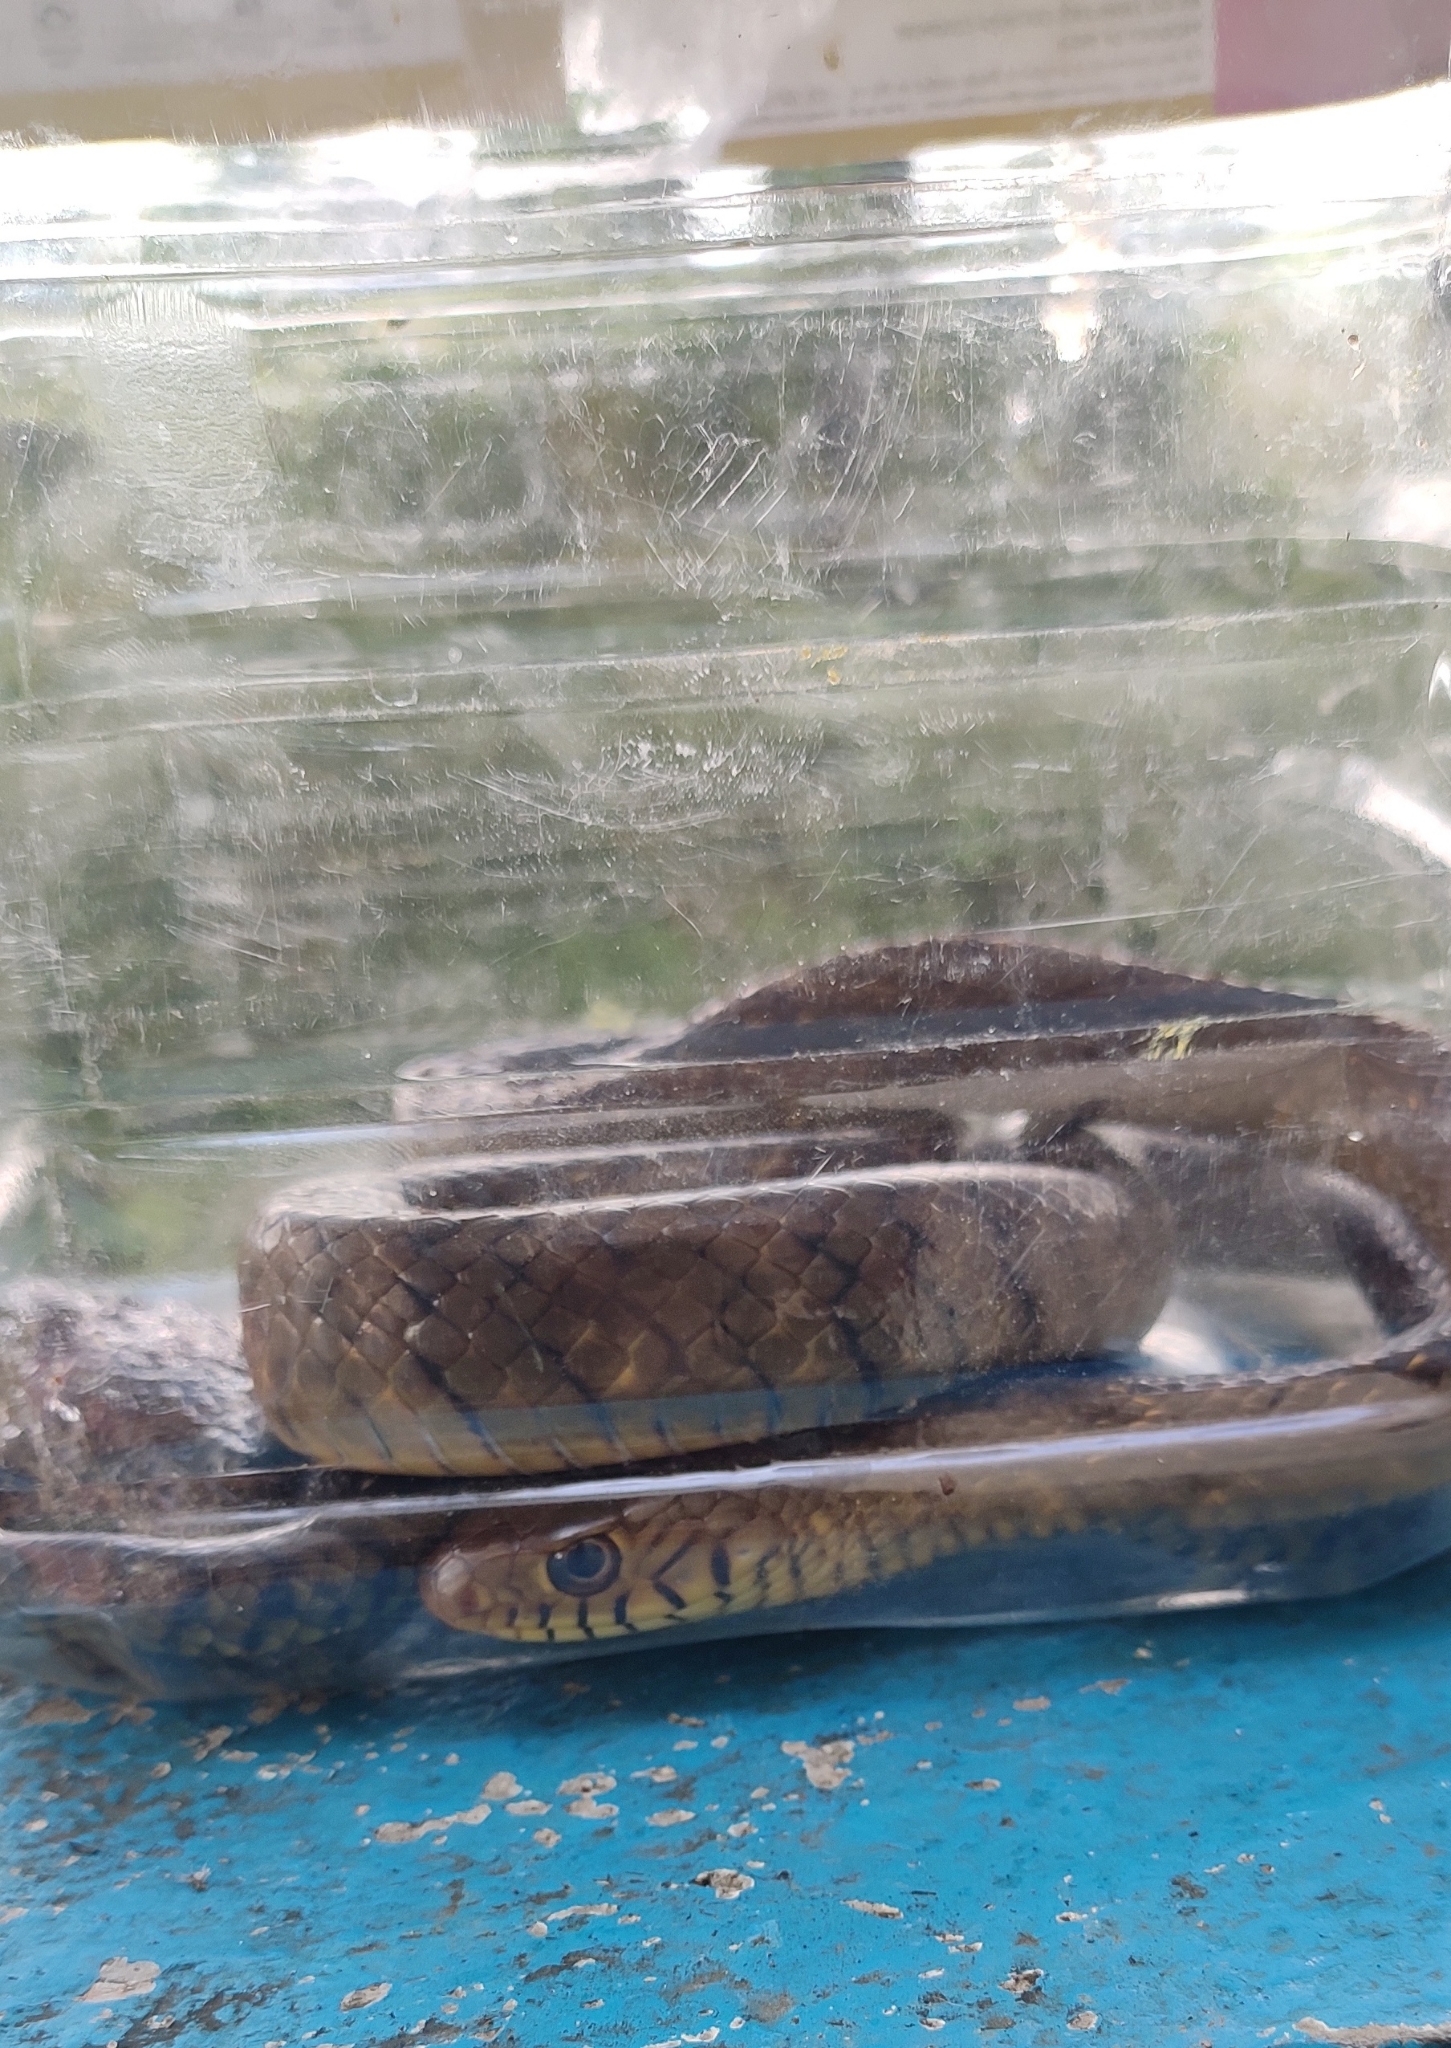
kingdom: Animalia
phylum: Chordata
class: Squamata
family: Colubridae
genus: Ptyas
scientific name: Ptyas mucosa
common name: Oriental ratsnake
